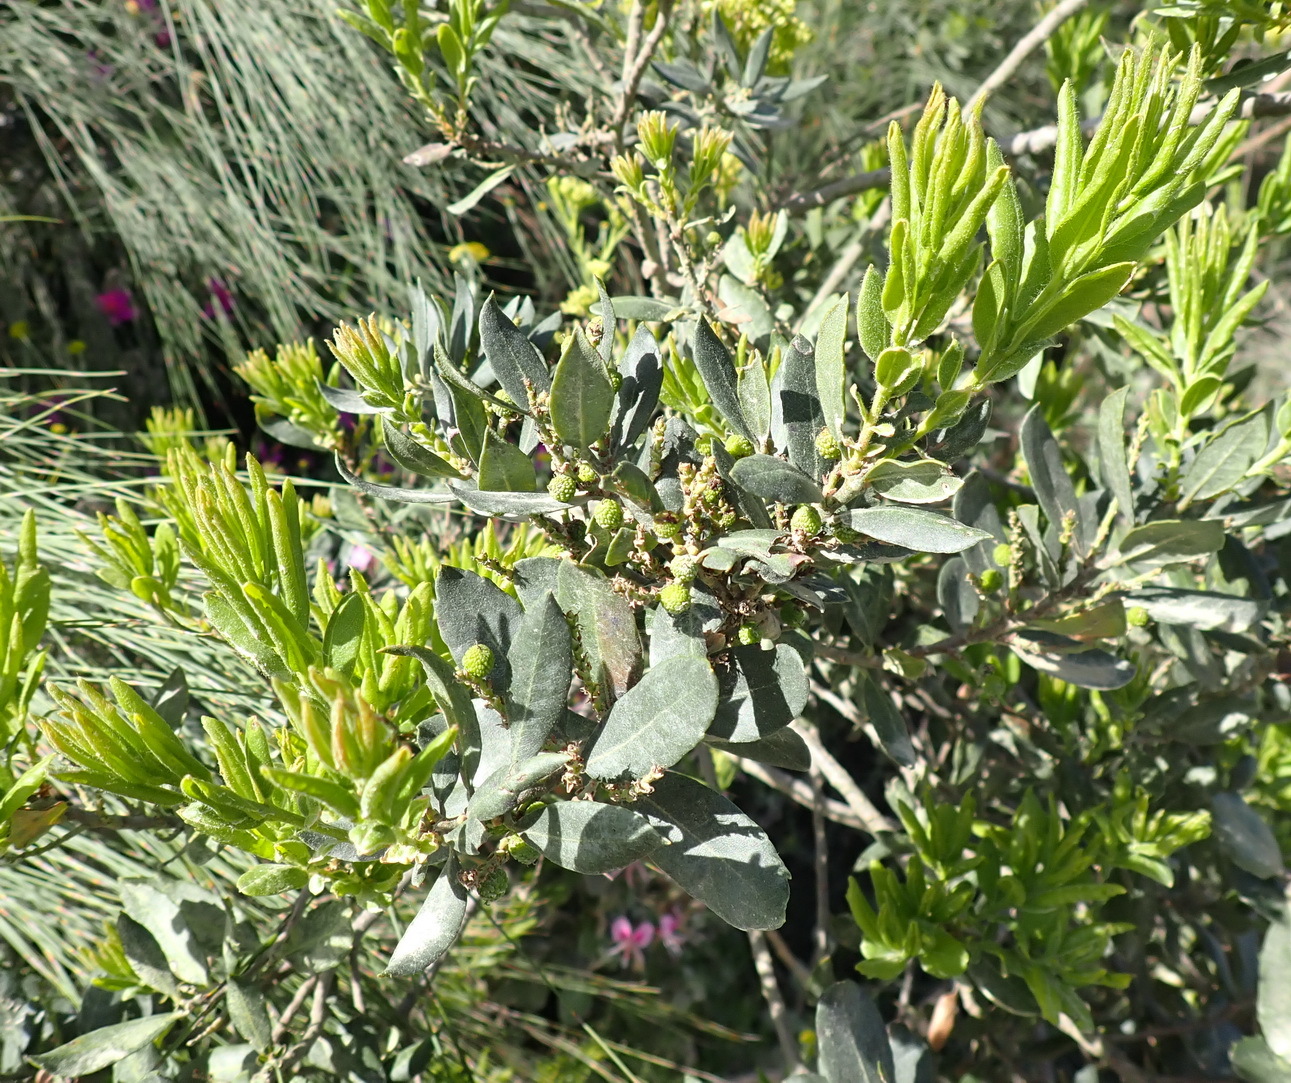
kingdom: Plantae
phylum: Tracheophyta
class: Magnoliopsida
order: Fagales
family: Myricaceae
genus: Morella
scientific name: Morella humilis
